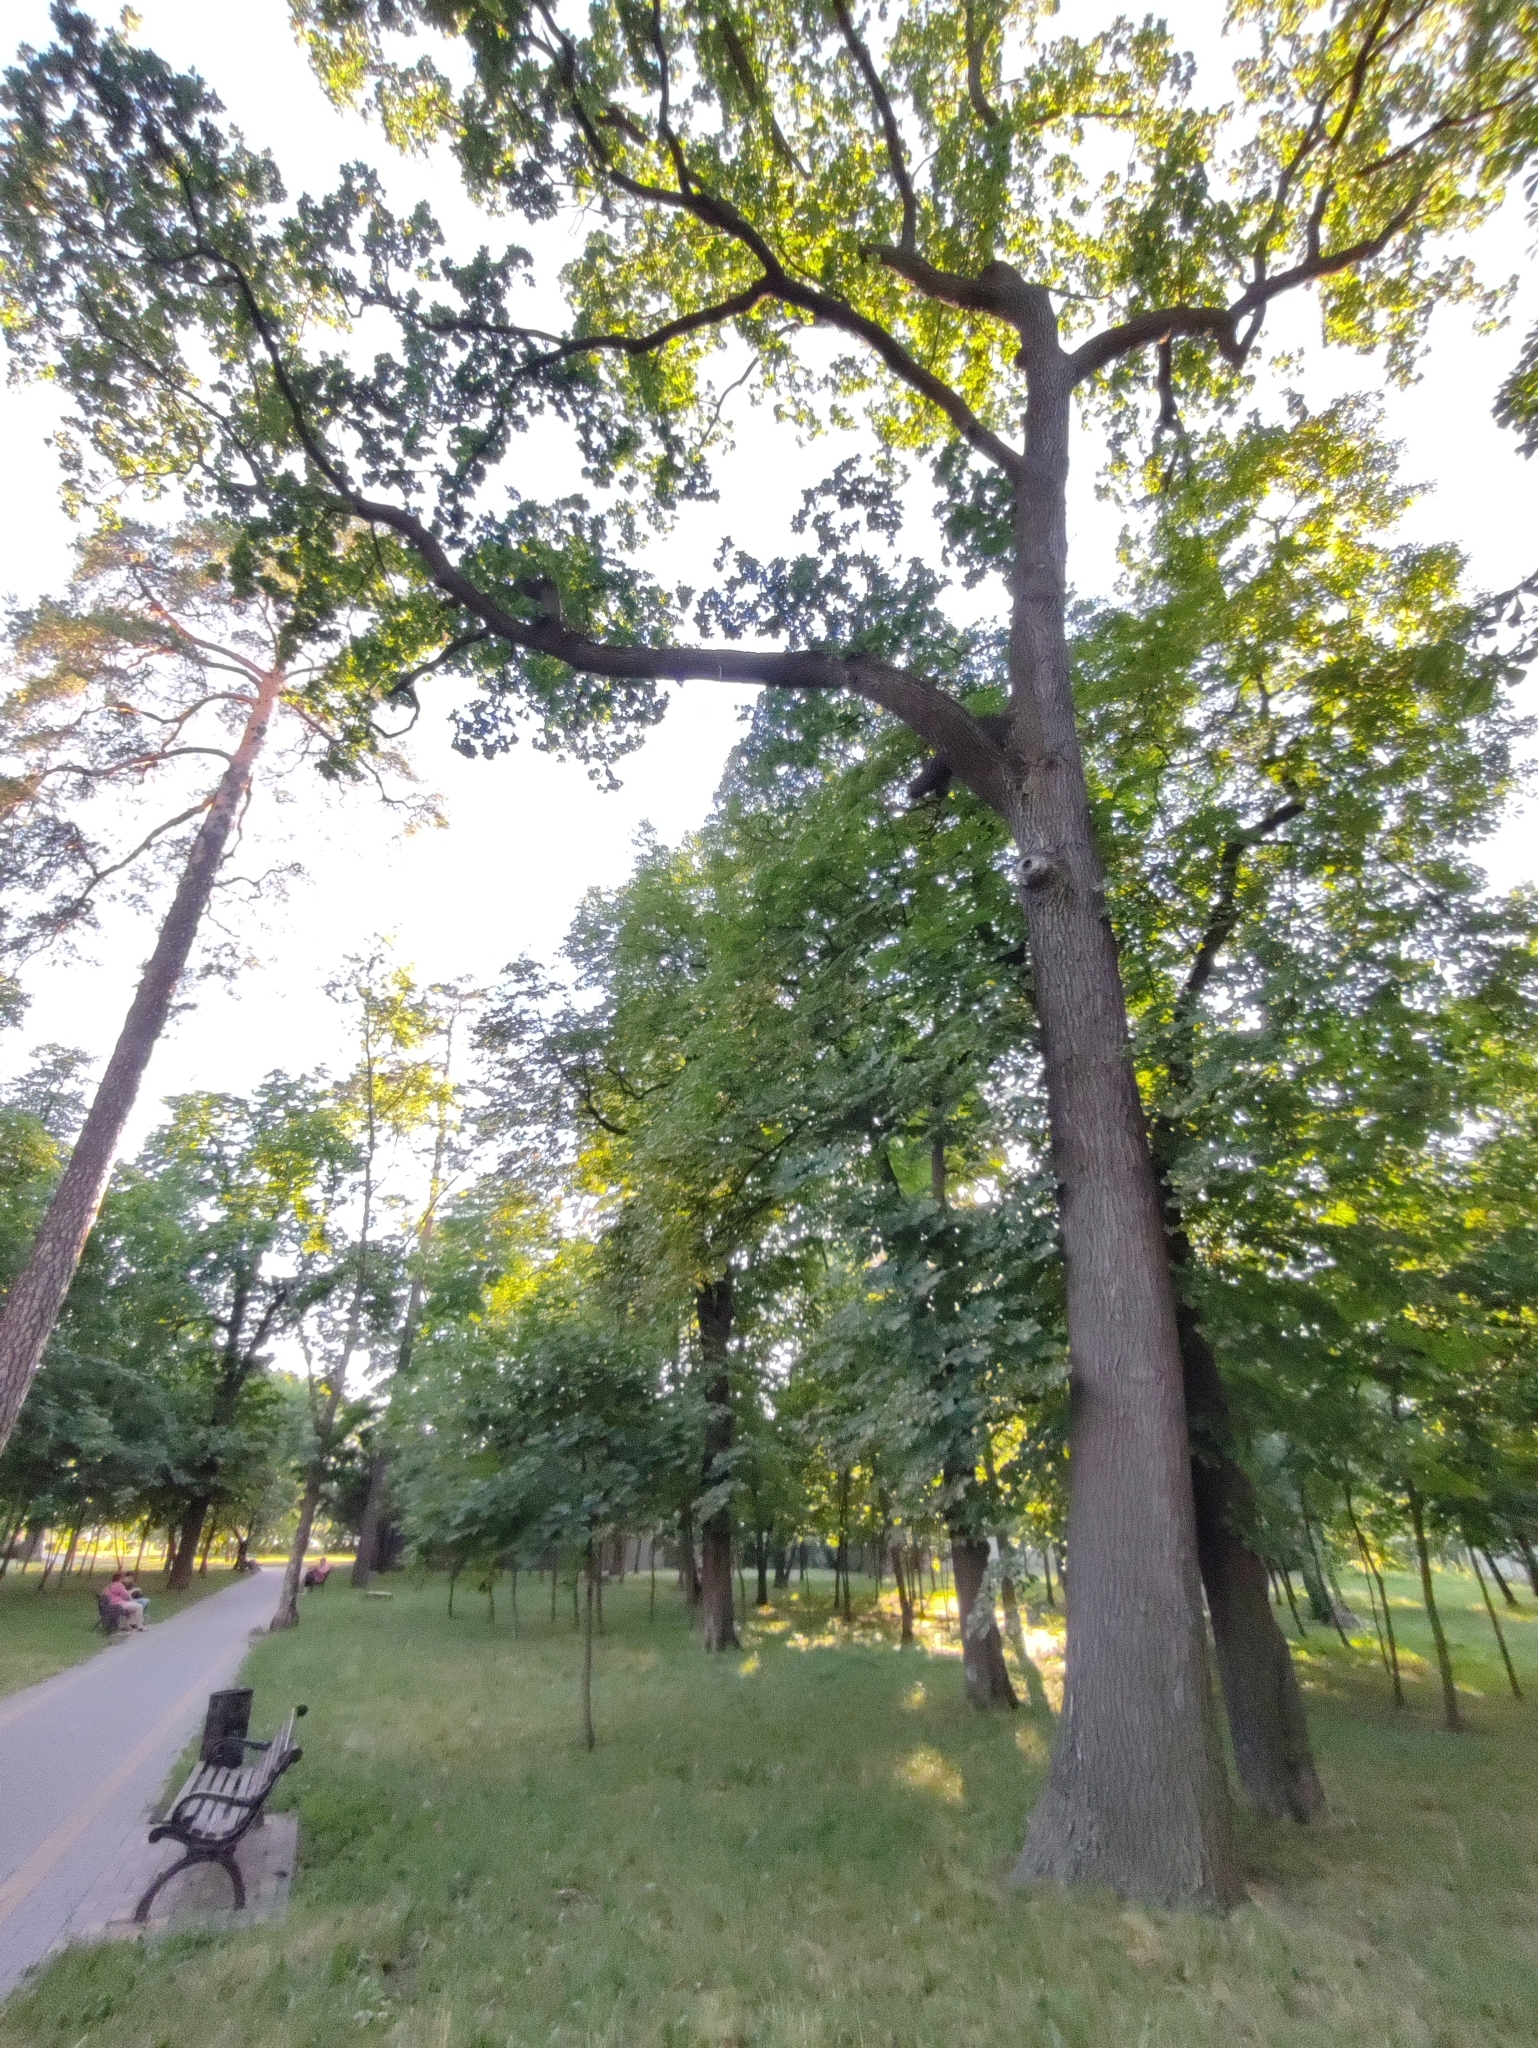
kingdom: Plantae
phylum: Tracheophyta
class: Magnoliopsida
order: Fagales
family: Fagaceae
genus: Quercus
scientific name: Quercus robur
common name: Pedunculate oak
